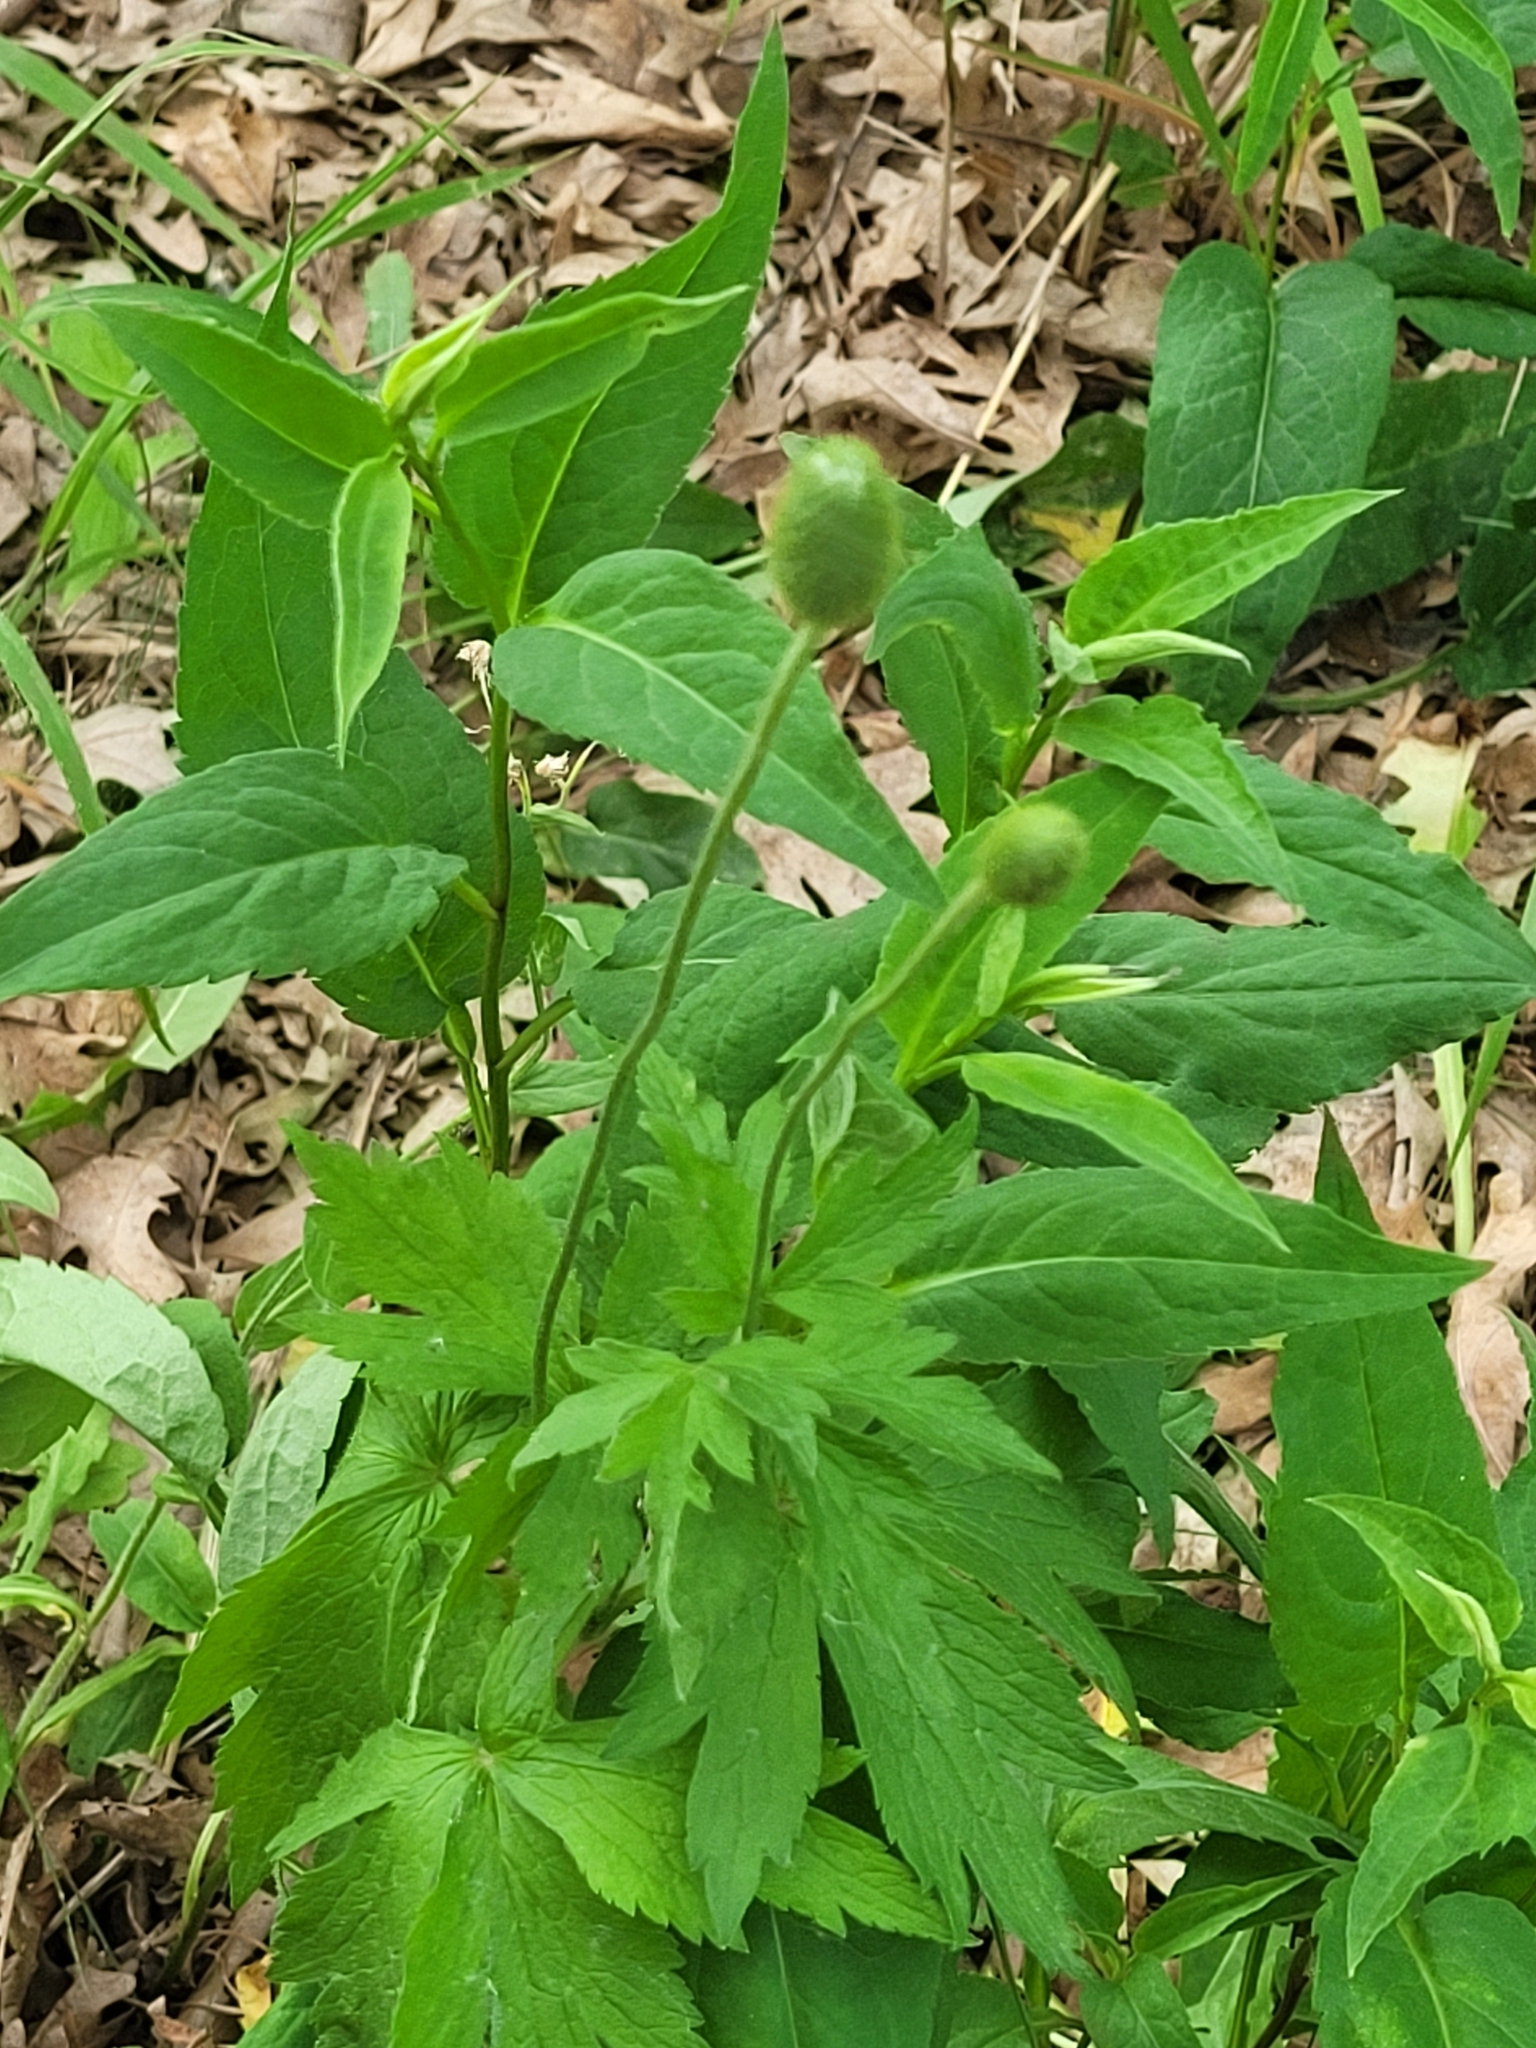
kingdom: Plantae
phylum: Tracheophyta
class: Magnoliopsida
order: Ranunculales
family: Ranunculaceae
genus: Anemone
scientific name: Anemone virginiana
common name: Tall anemone
